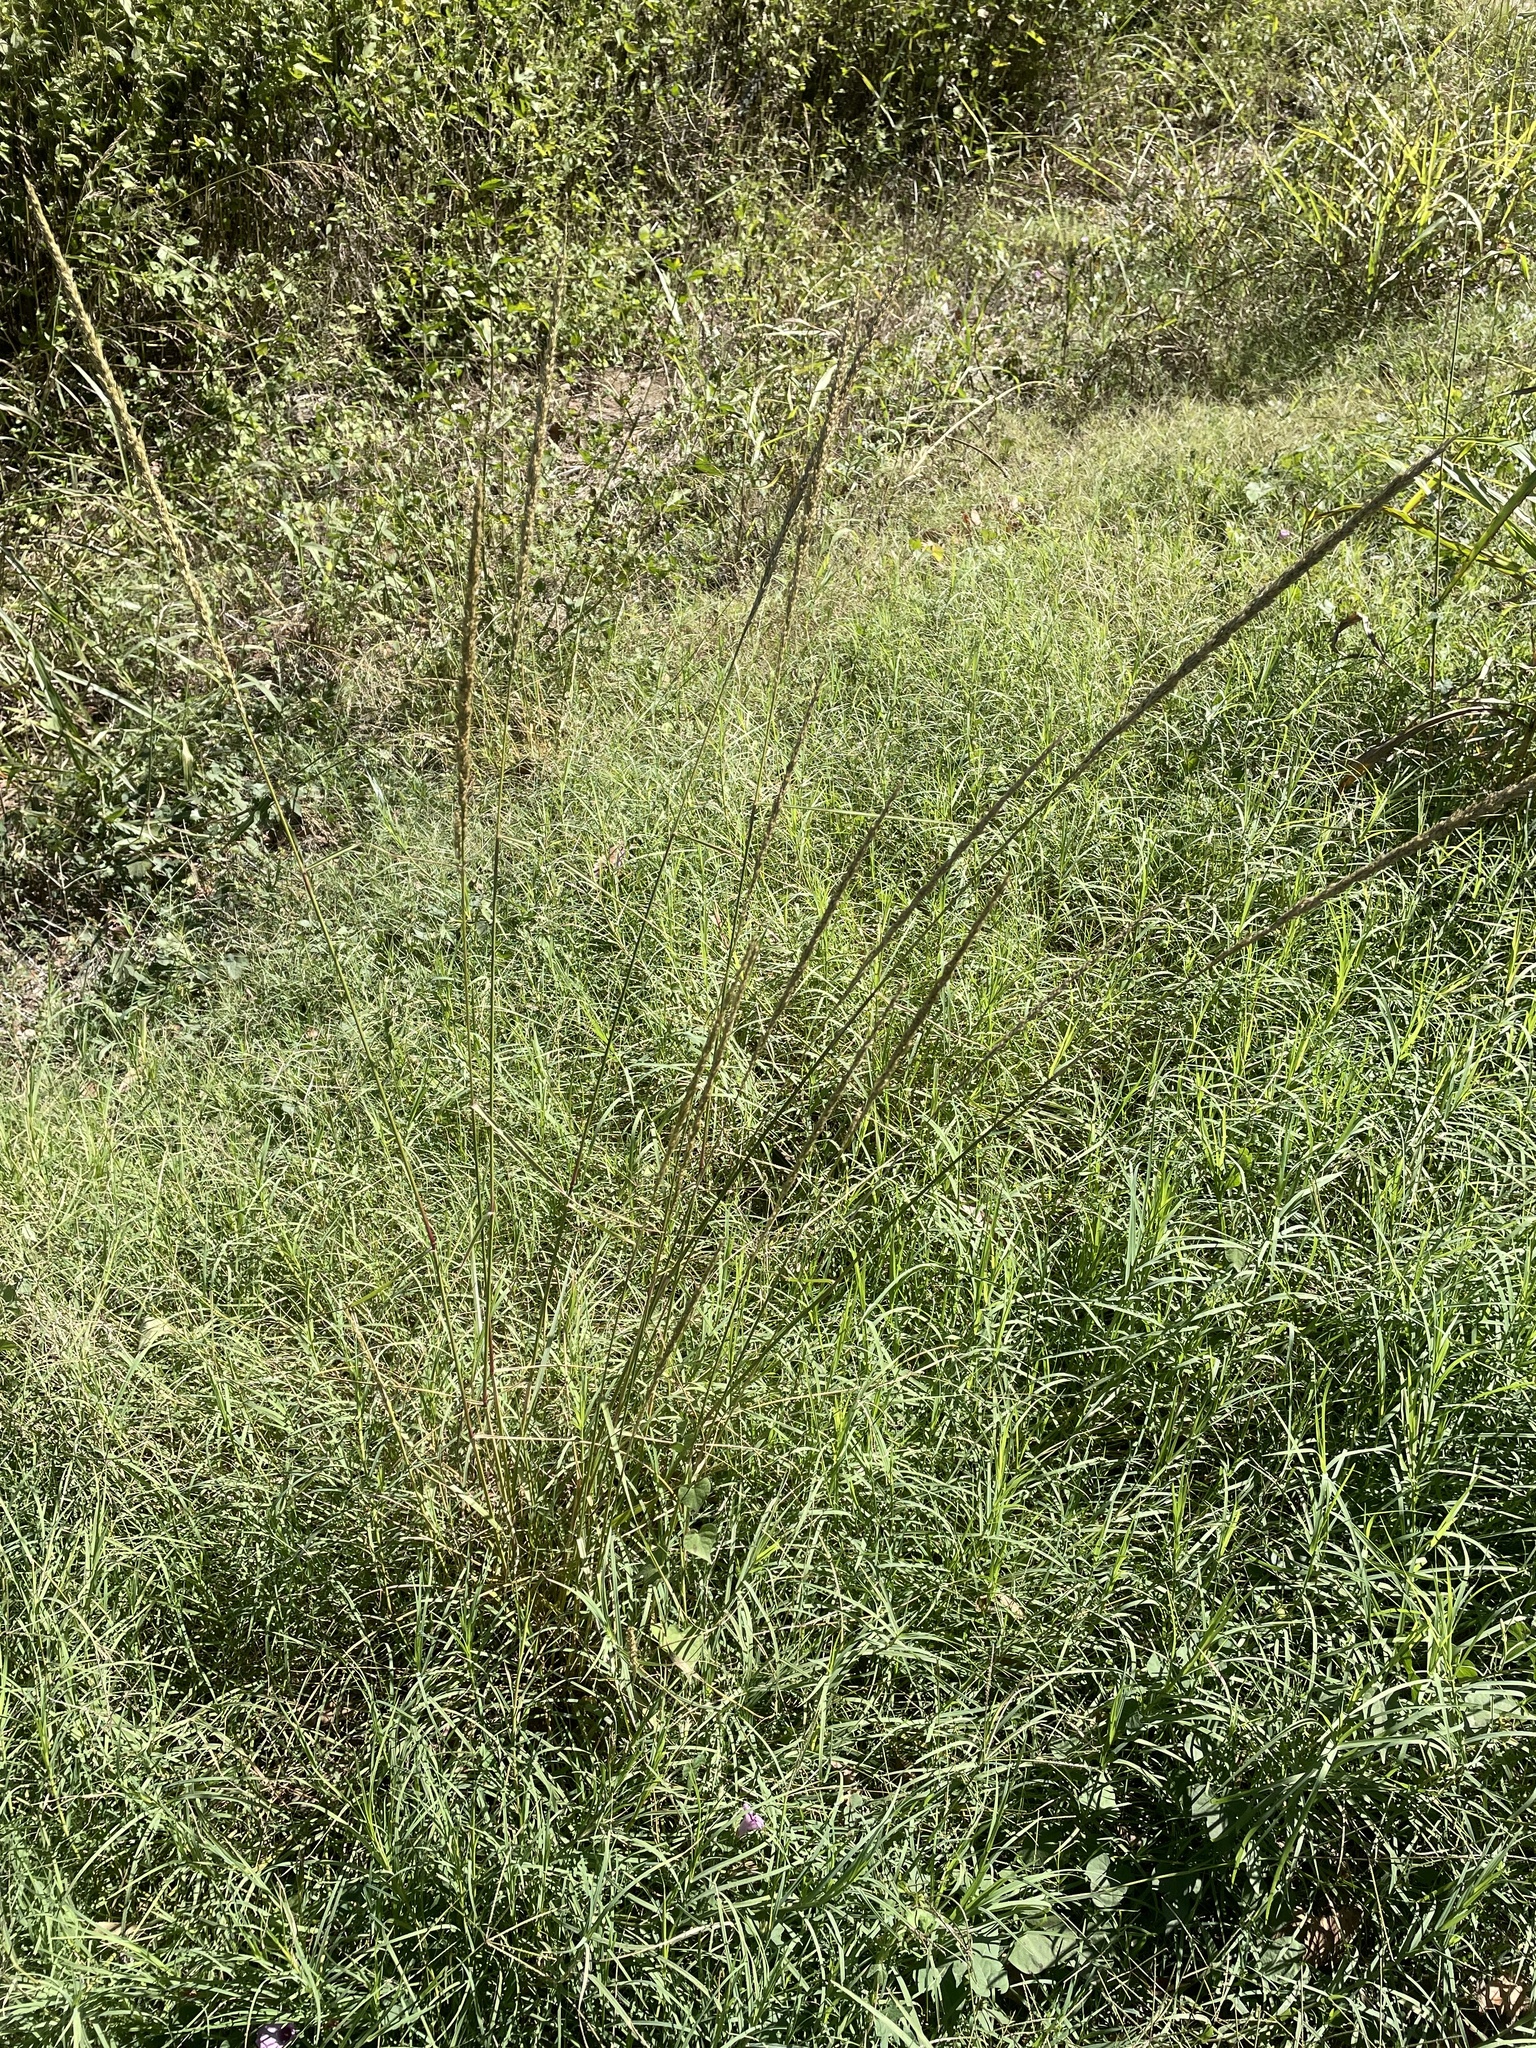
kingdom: Plantae
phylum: Tracheophyta
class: Liliopsida
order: Poales
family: Poaceae
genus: Tridens
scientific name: Tridens strictus
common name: Long-spike tridens
